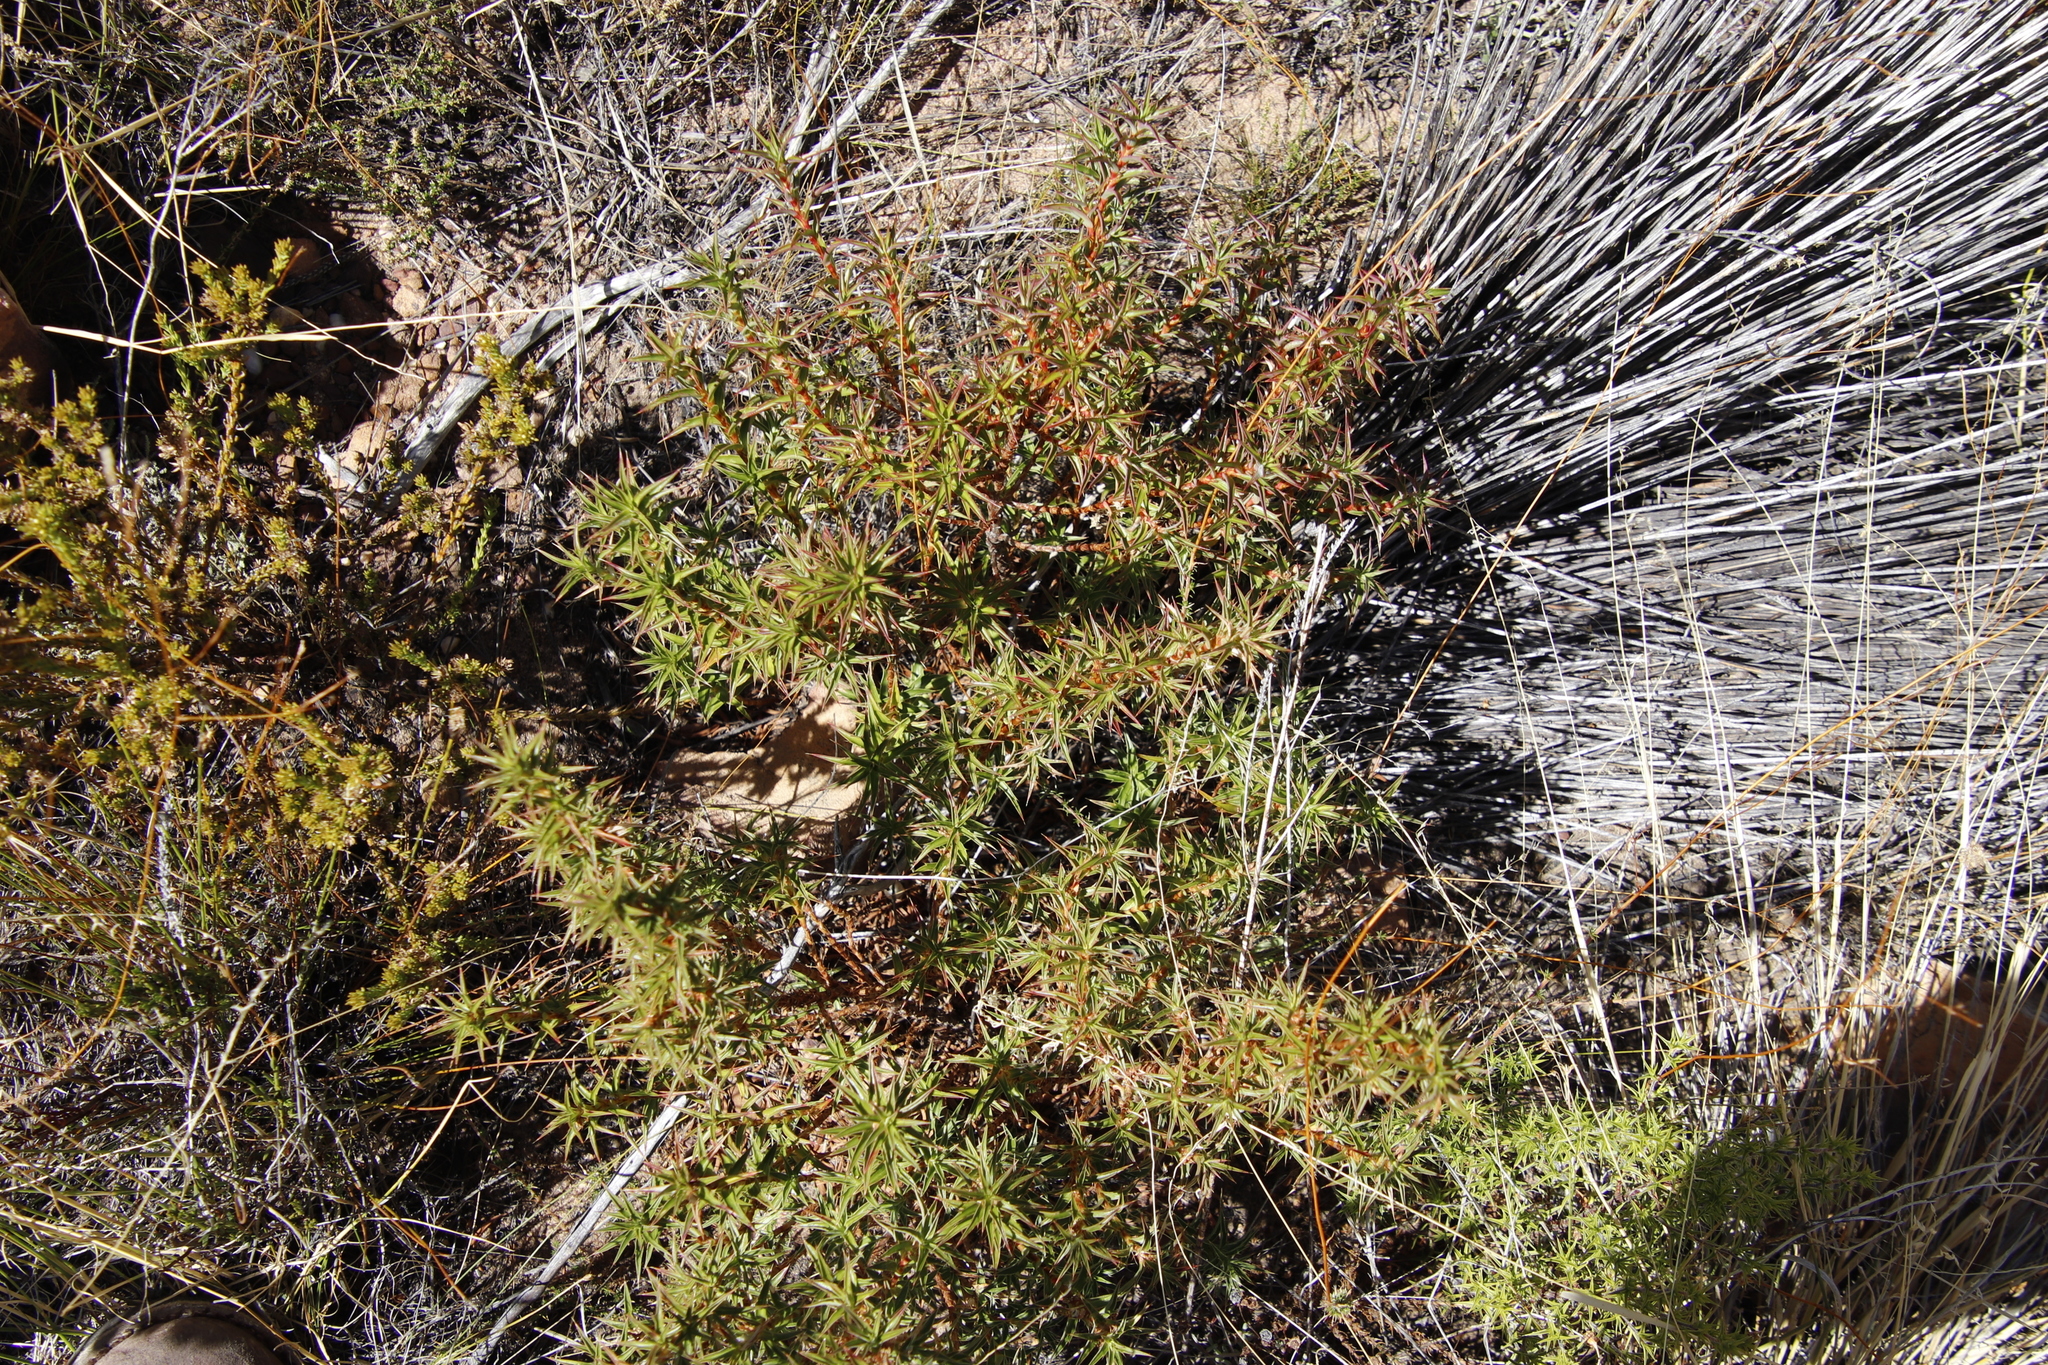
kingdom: Plantae
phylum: Tracheophyta
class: Magnoliopsida
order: Rosales
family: Rosaceae
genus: Cliffortia
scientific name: Cliffortia acanthophylla
